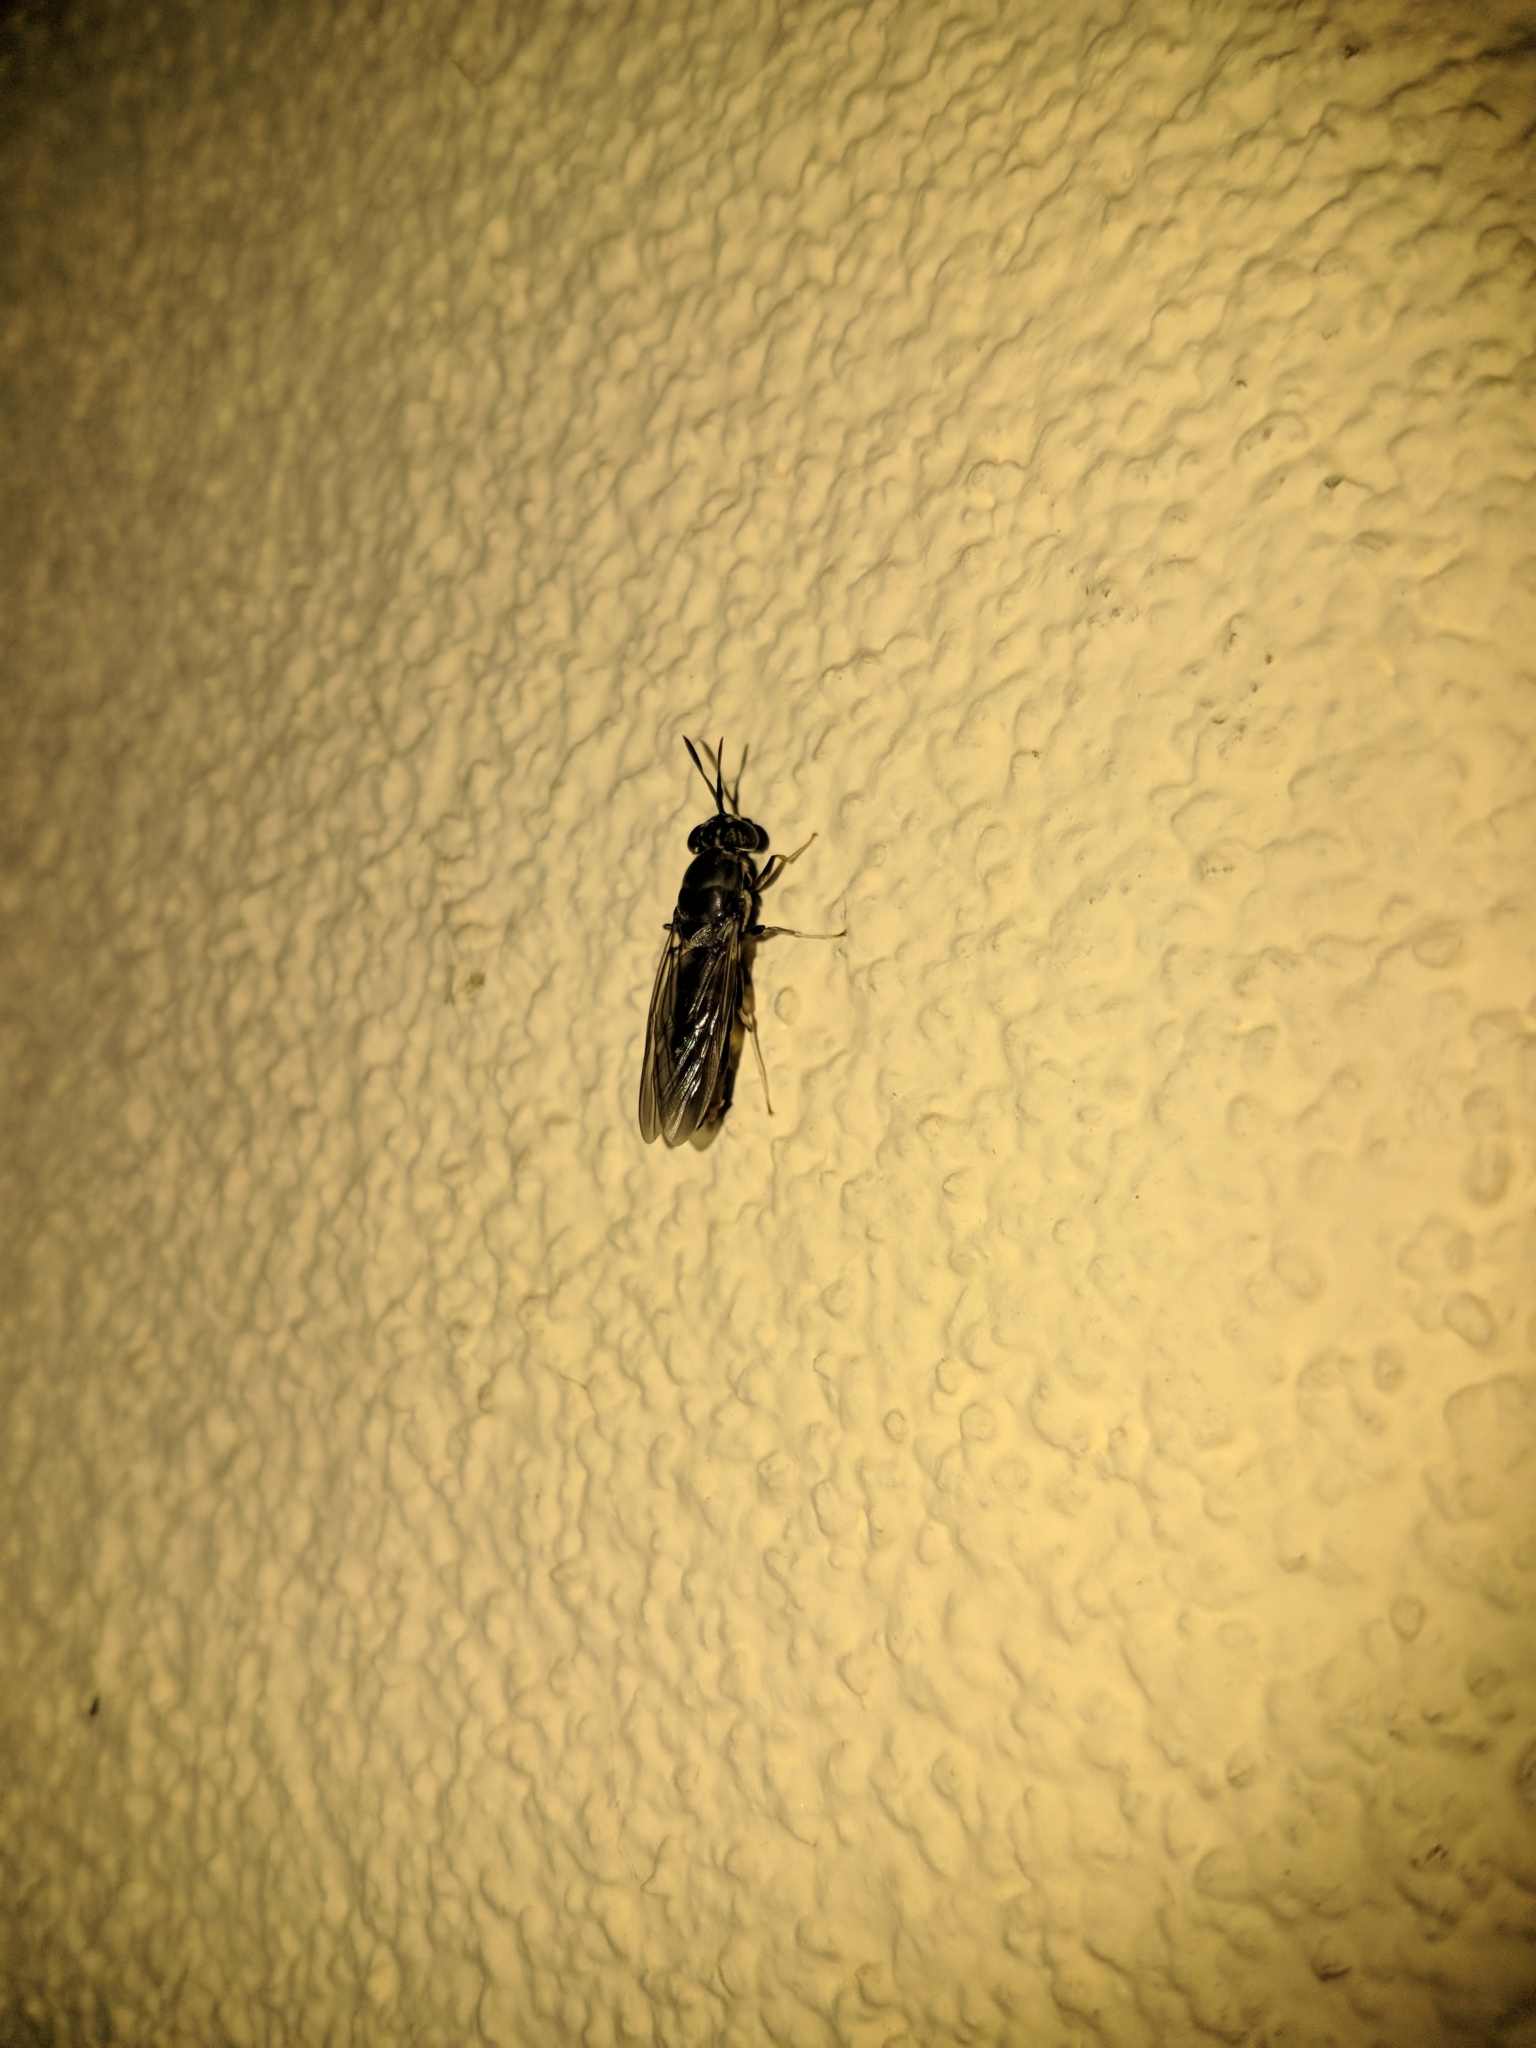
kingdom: Animalia
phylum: Arthropoda
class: Insecta
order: Diptera
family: Stratiomyidae
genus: Hermetia
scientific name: Hermetia illucens
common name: Black soldier fly
